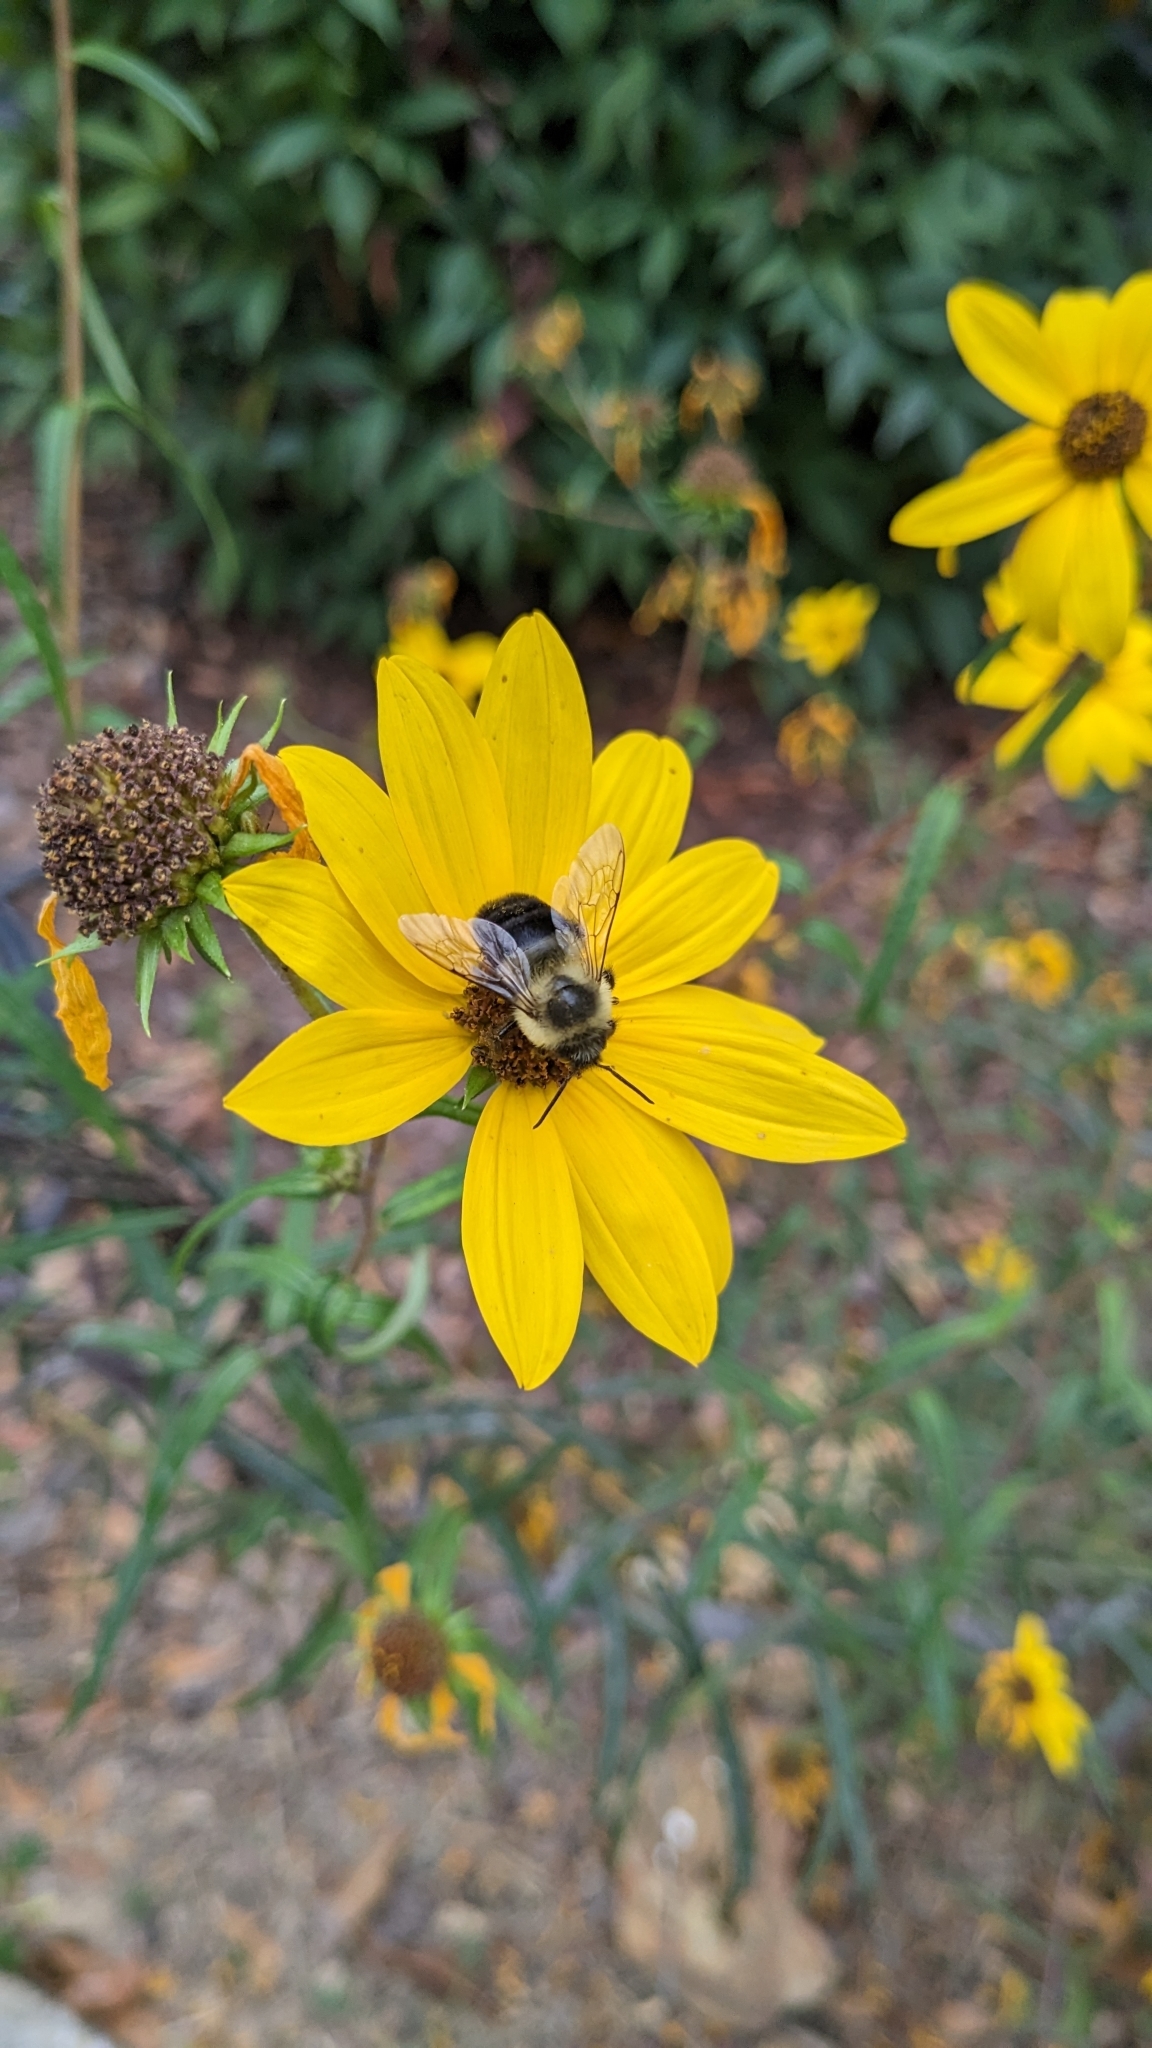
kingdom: Animalia
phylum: Arthropoda
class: Insecta
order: Hymenoptera
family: Apidae
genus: Bombus
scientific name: Bombus impatiens
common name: Common eastern bumble bee
